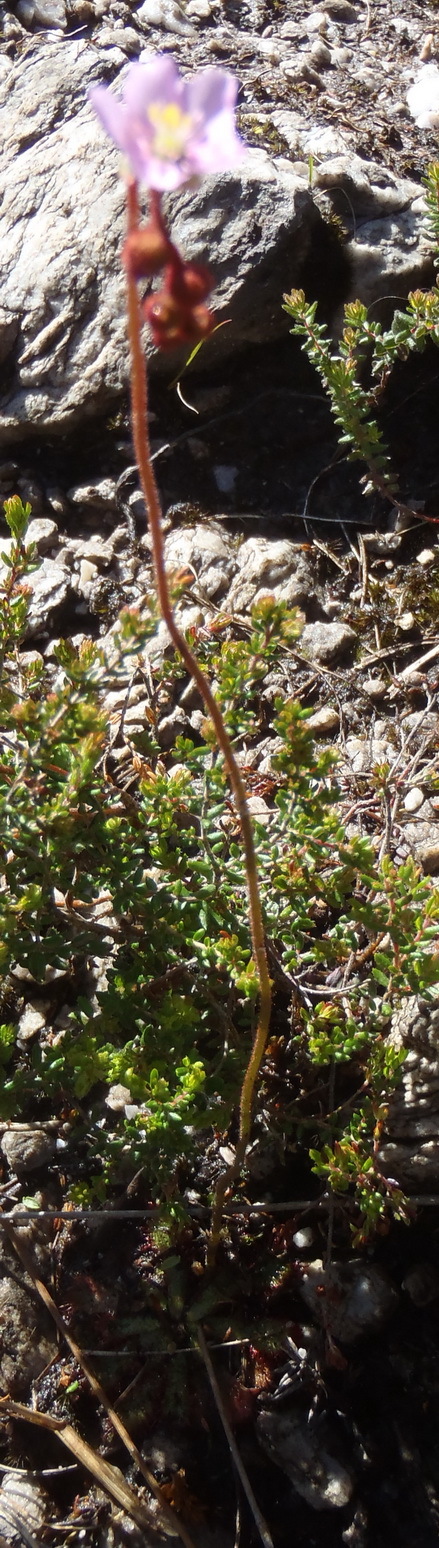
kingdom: Plantae
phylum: Tracheophyta
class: Magnoliopsida
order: Caryophyllales
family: Droseraceae
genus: Drosera
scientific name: Drosera aliciae
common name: Alice sundew
